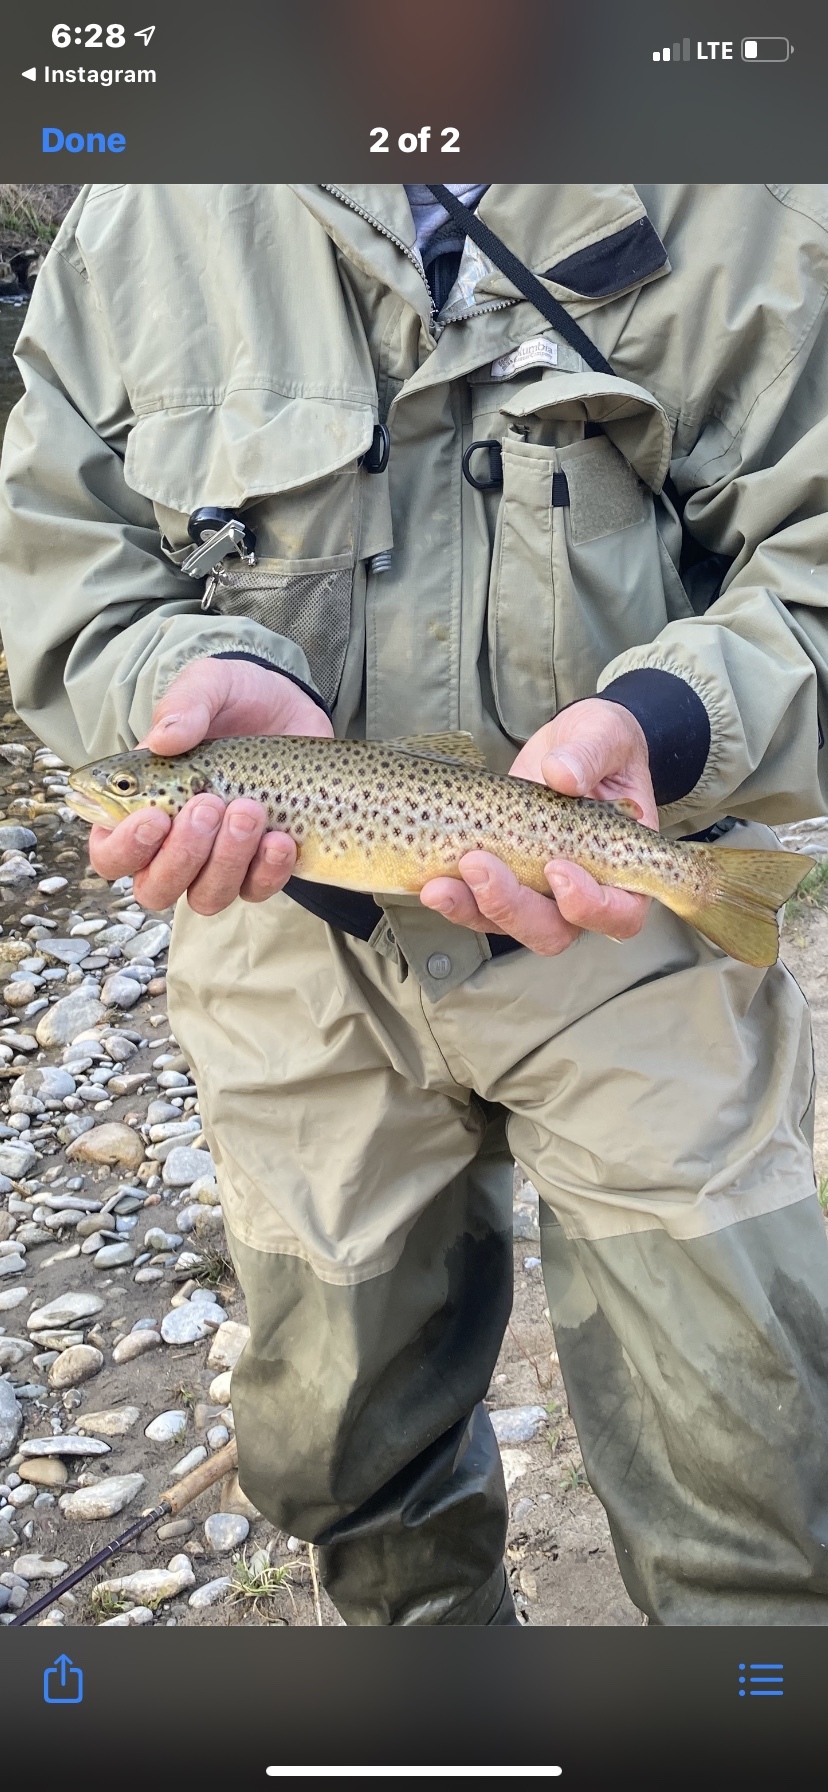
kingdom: Animalia
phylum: Chordata
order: Salmoniformes
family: Salmonidae
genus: Salmo
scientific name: Salmo trutta
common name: Brown trout
